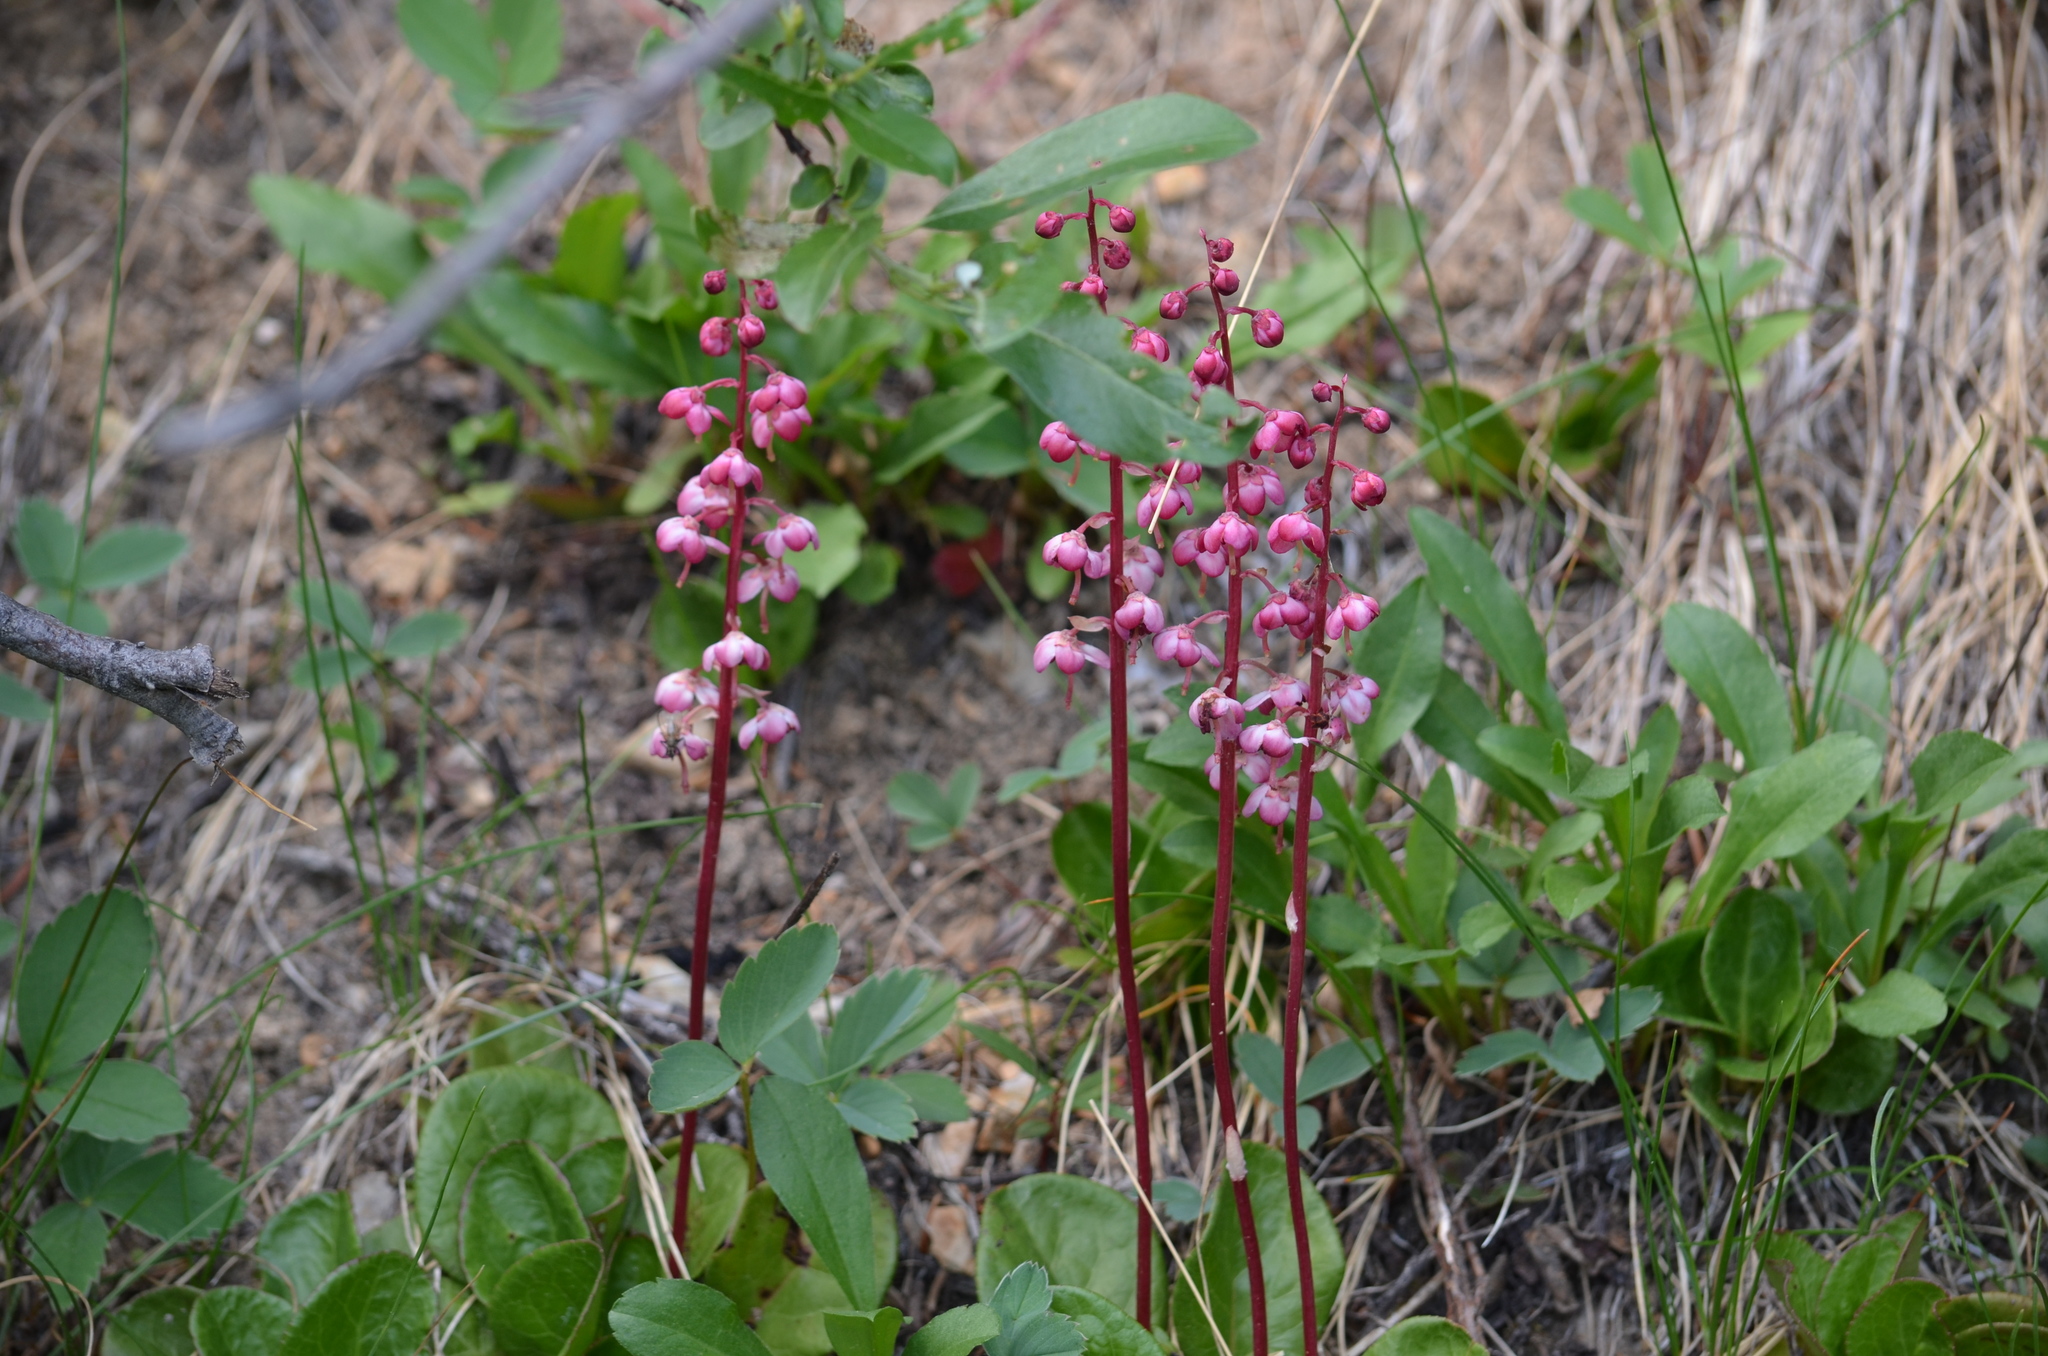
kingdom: Plantae
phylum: Tracheophyta
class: Magnoliopsida
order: Ericales
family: Ericaceae
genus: Pyrola
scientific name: Pyrola asarifolia
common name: Bog wintergreen
